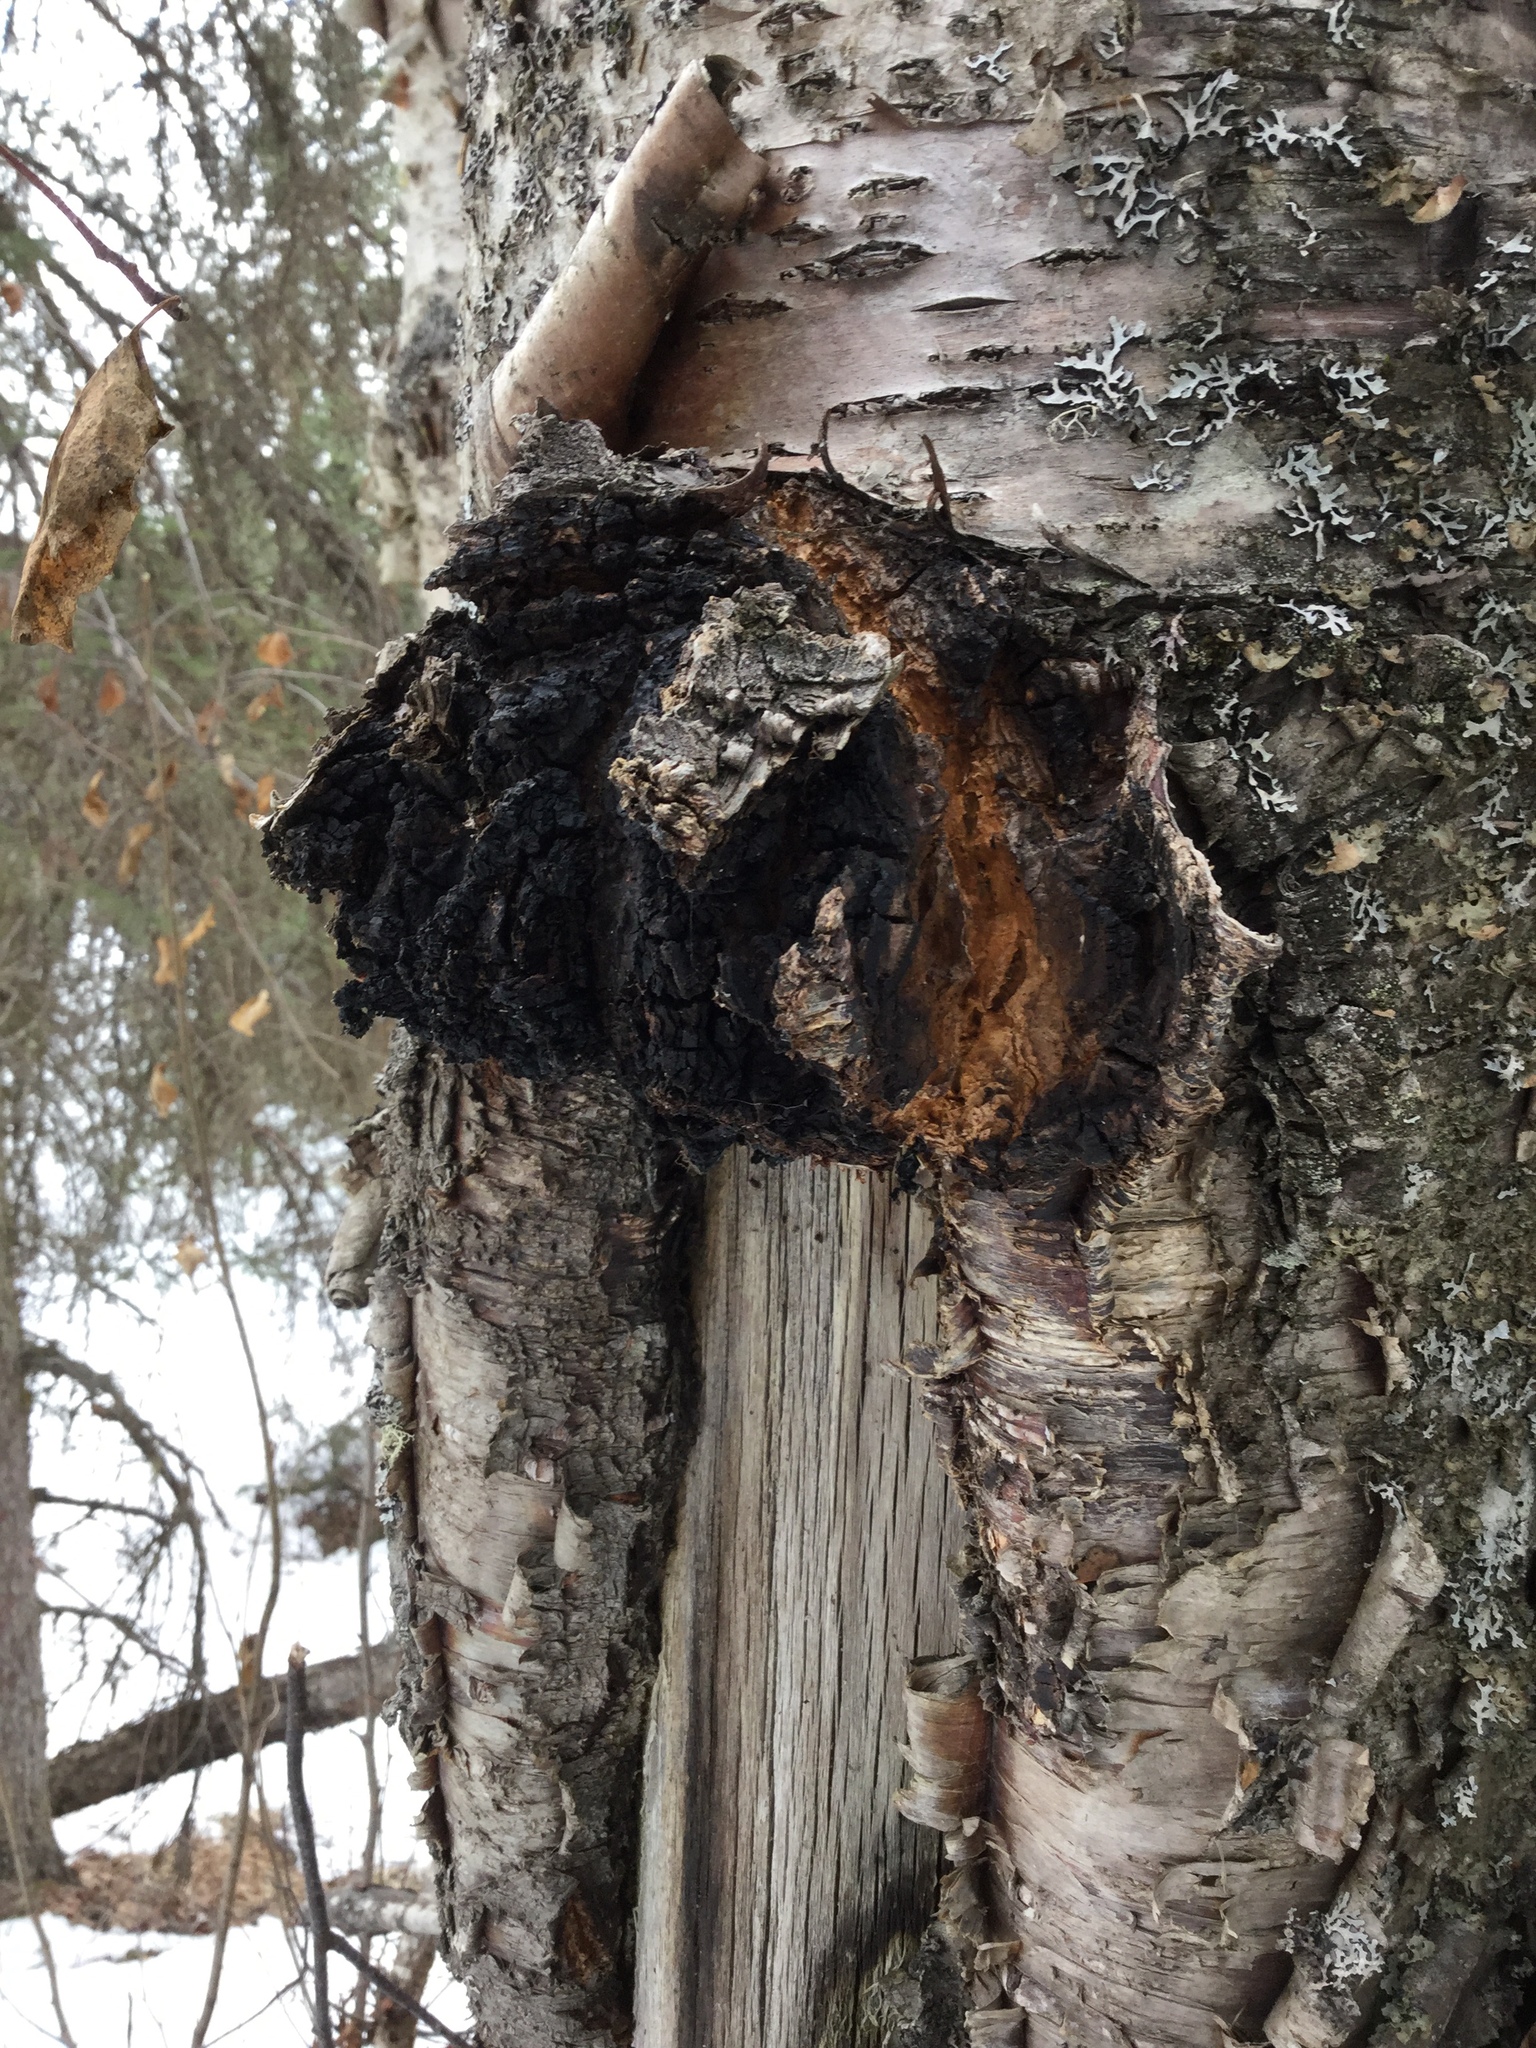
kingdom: Fungi
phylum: Basidiomycota
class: Agaricomycetes
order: Hymenochaetales
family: Hymenochaetaceae
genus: Inonotus
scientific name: Inonotus obliquus
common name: Chaga
